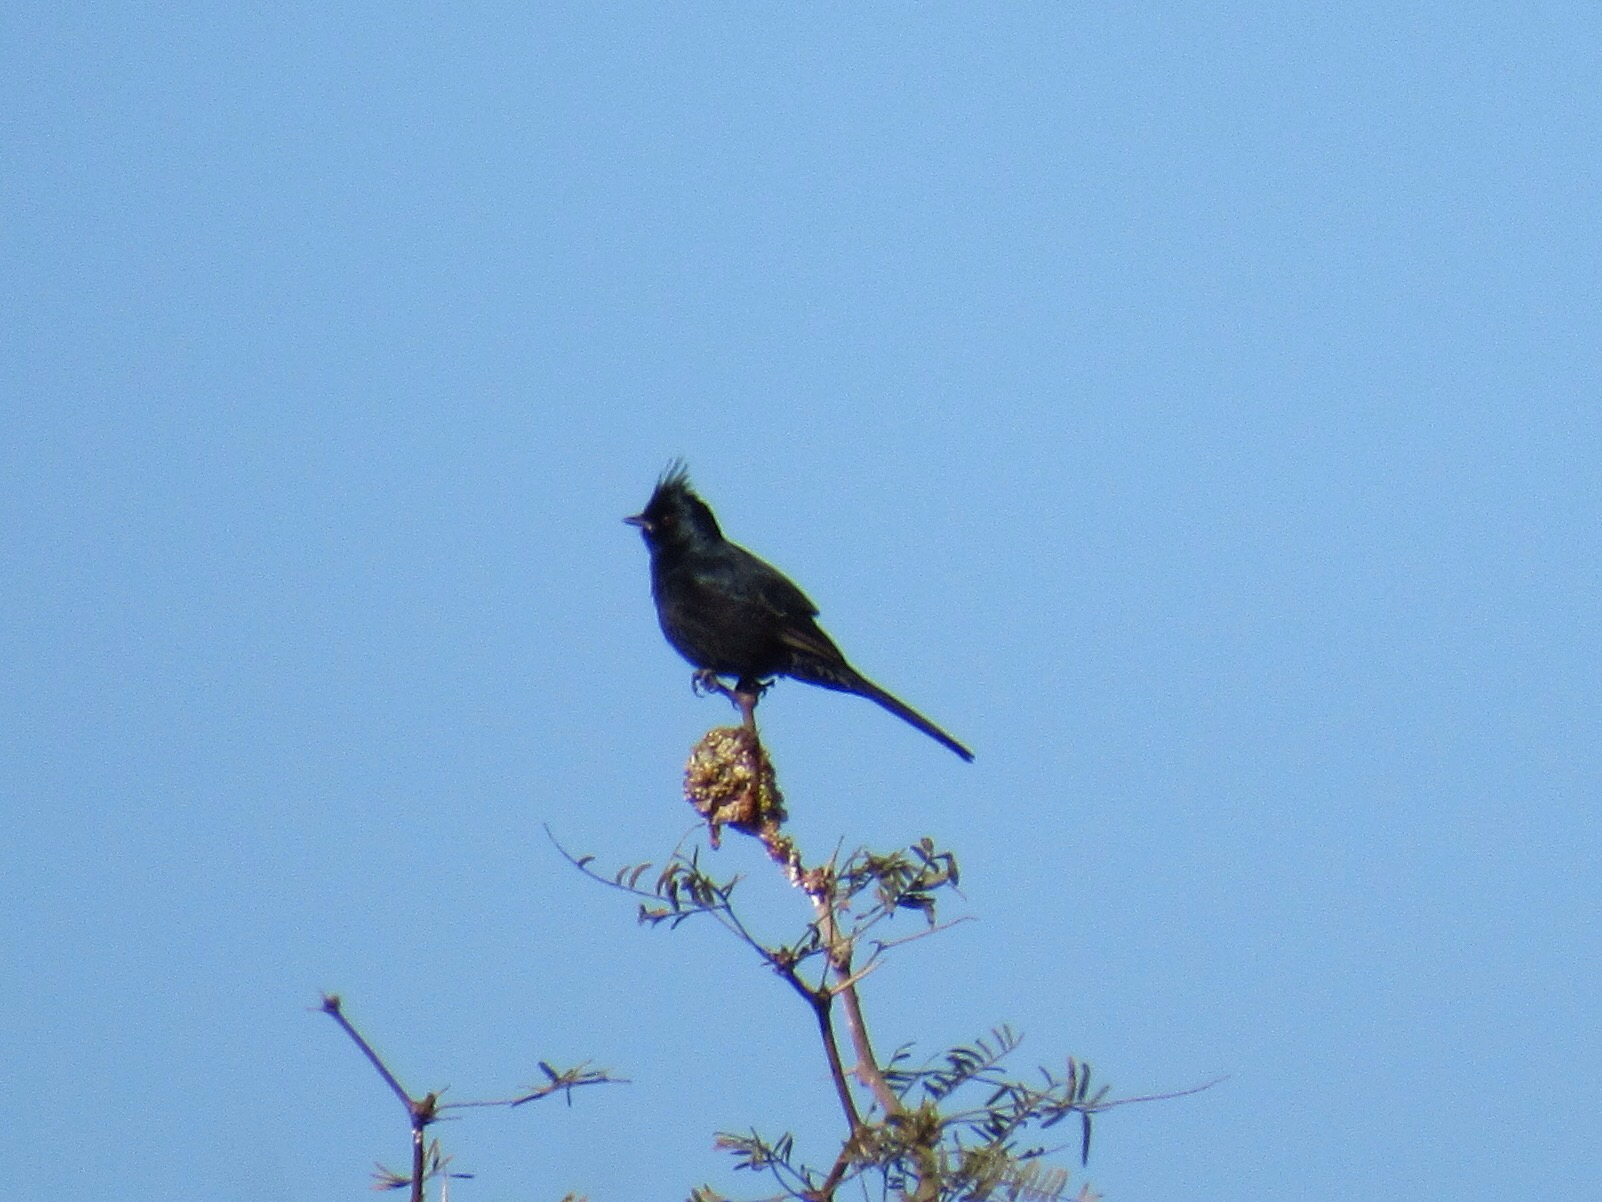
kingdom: Animalia
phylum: Chordata
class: Aves
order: Passeriformes
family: Ptilogonatidae
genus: Phainopepla
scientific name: Phainopepla nitens
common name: Phainopepla
